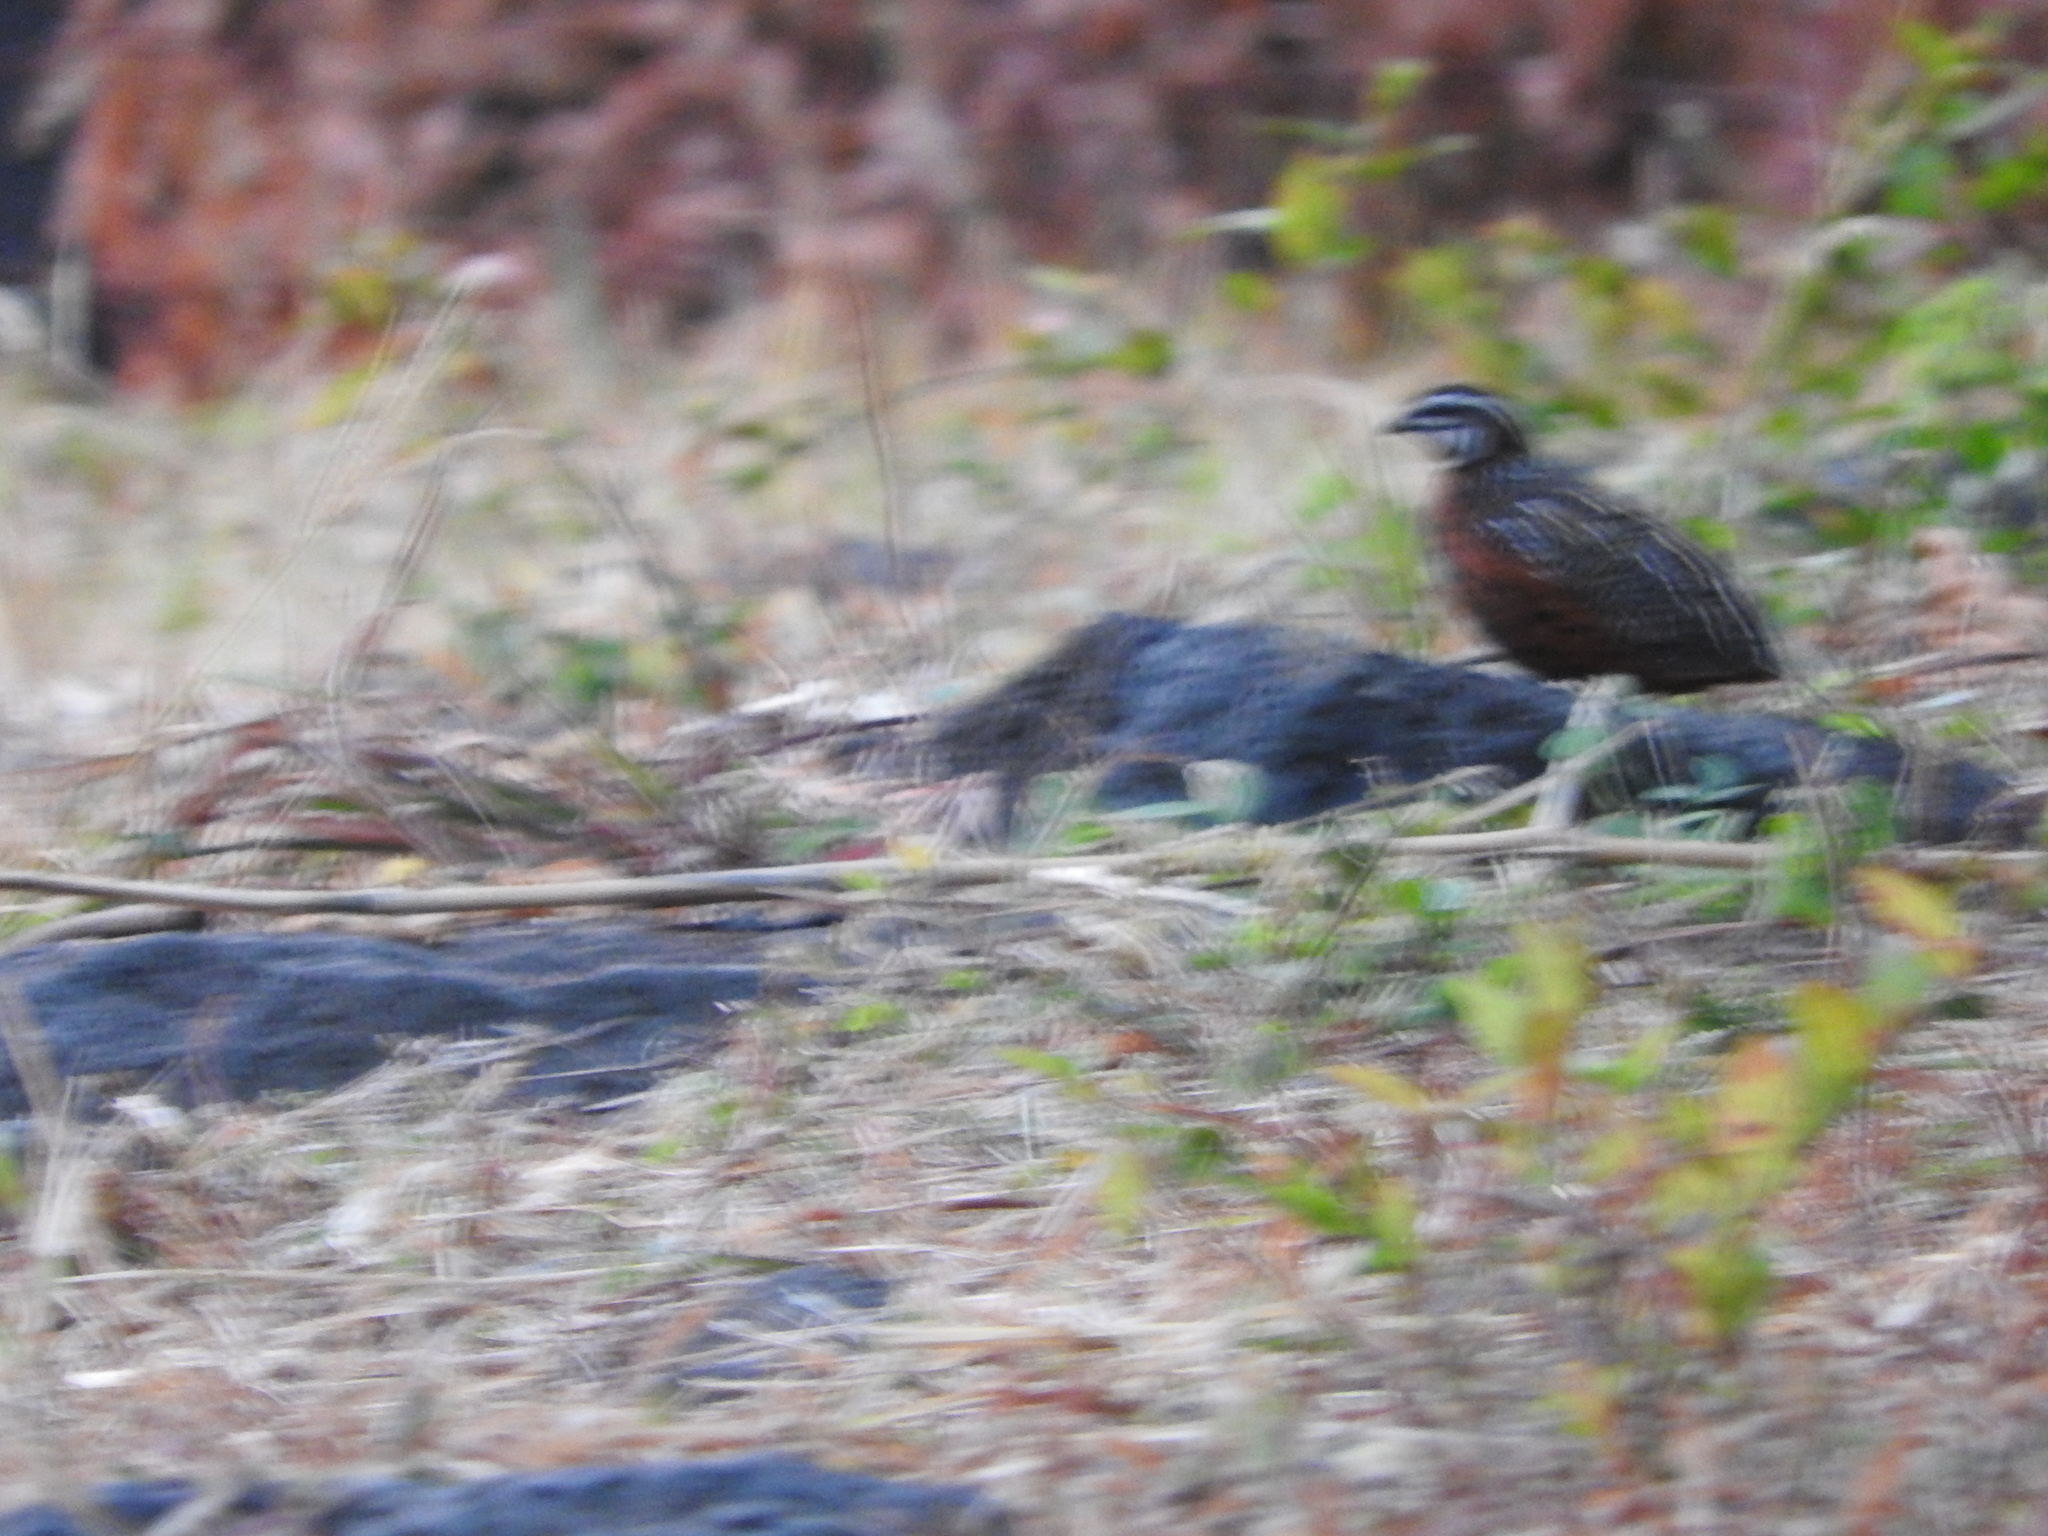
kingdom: Animalia
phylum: Chordata
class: Aves
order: Galliformes
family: Phasianidae
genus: Coturnix
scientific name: Coturnix delegorguei
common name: Harlequin quail
